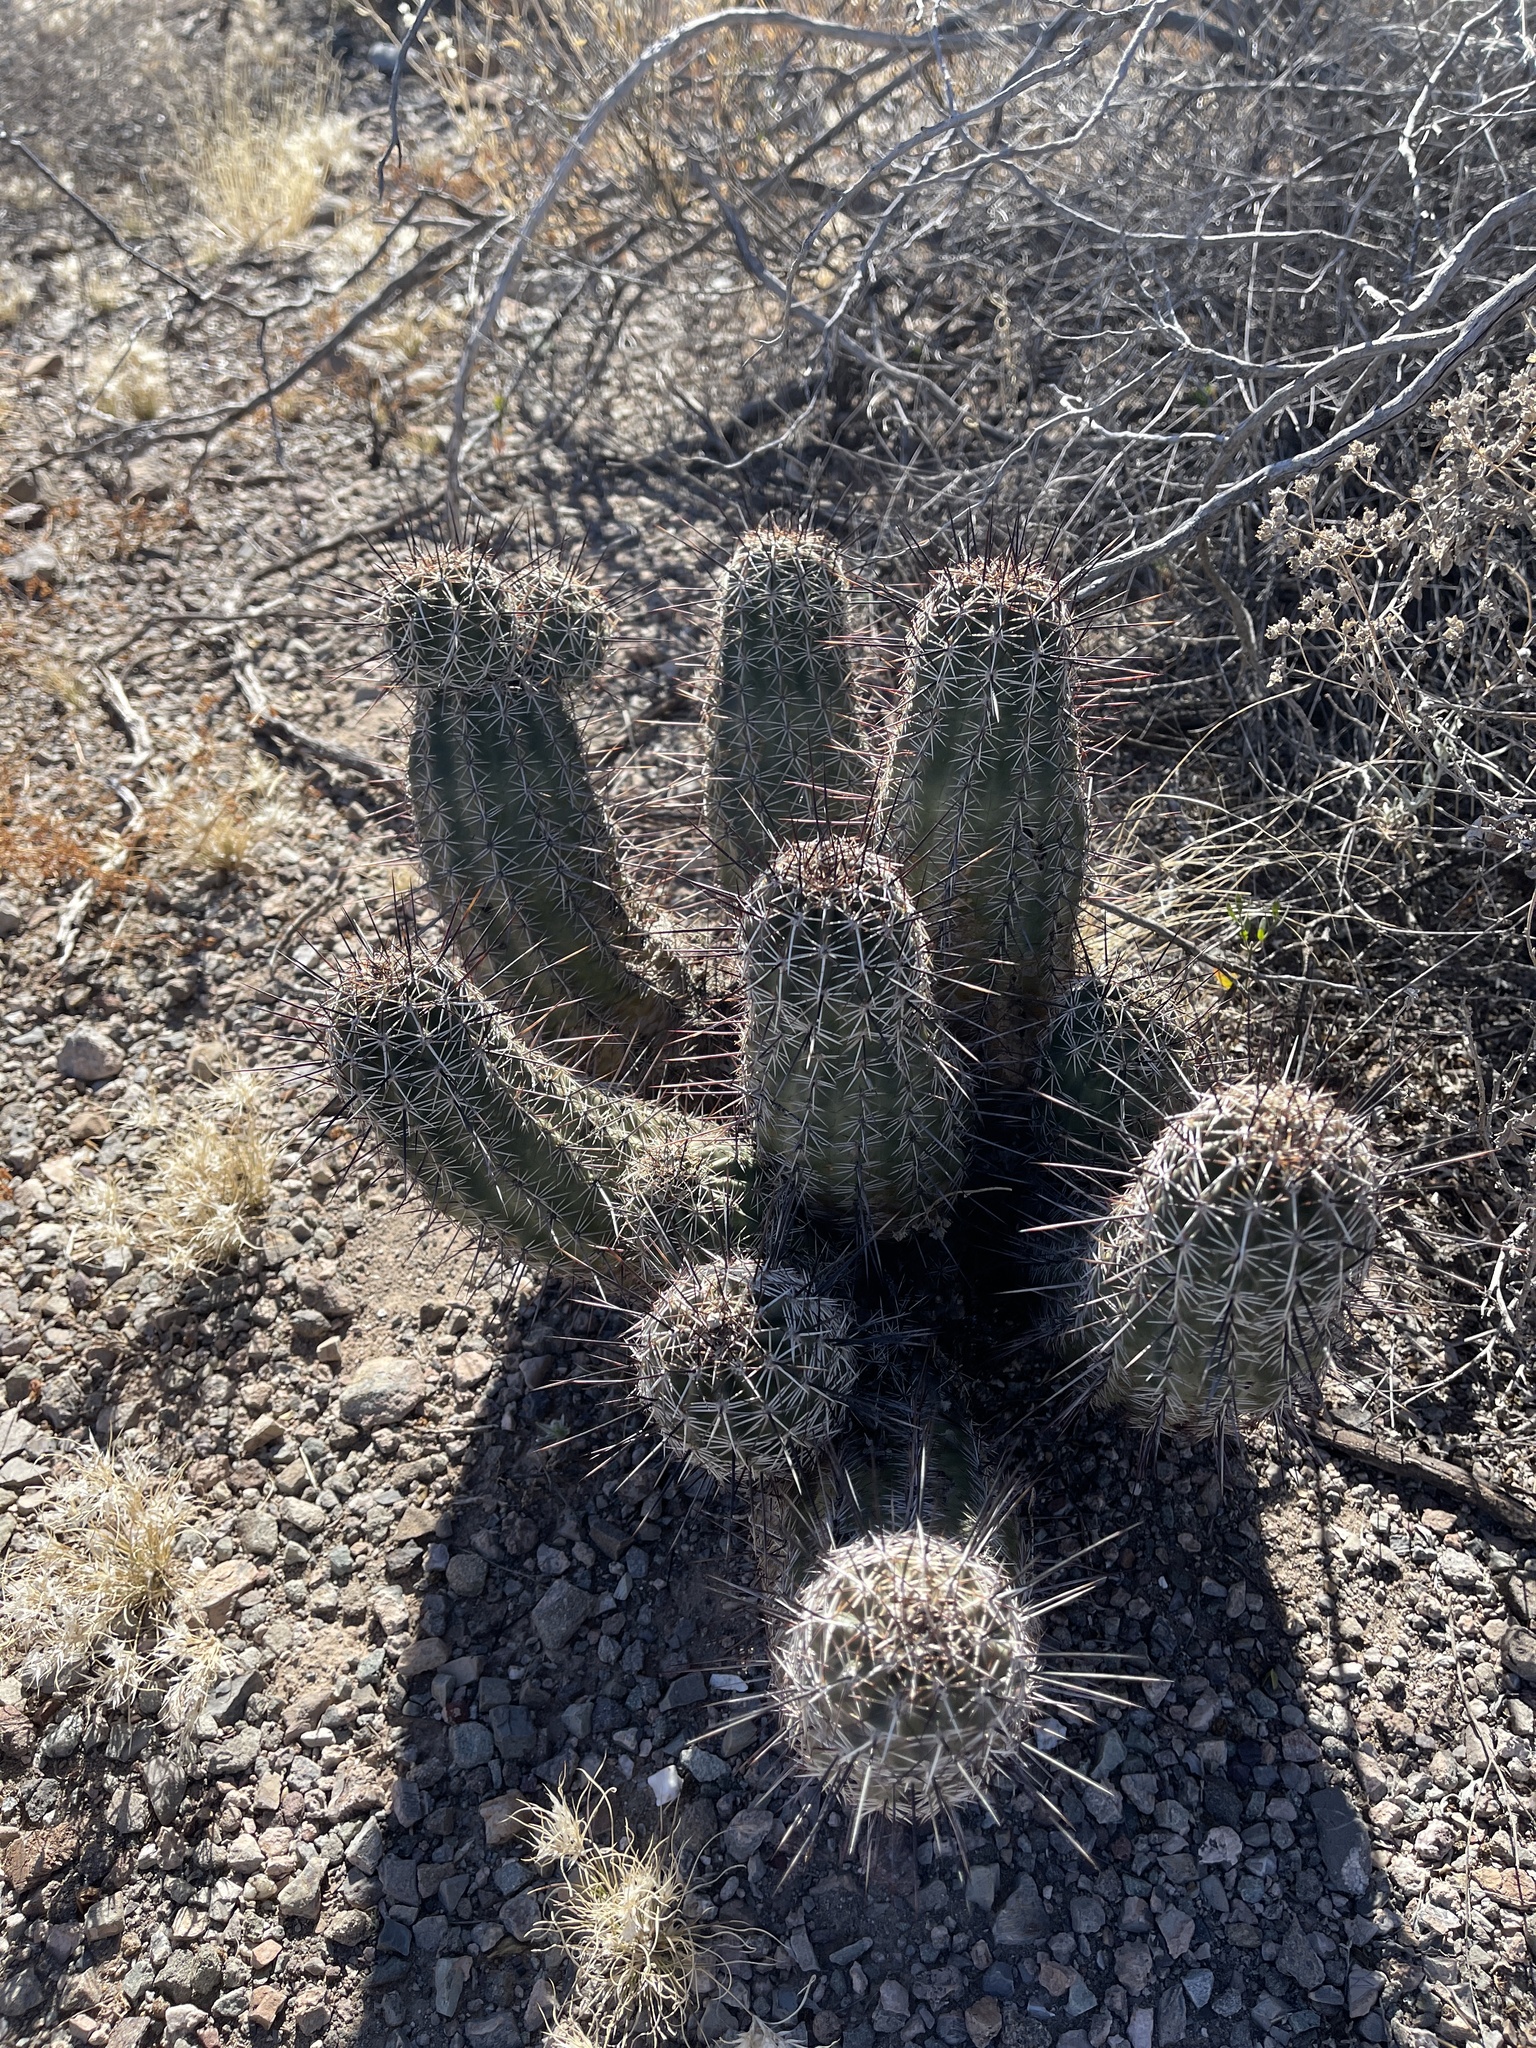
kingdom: Plantae
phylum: Tracheophyta
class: Magnoliopsida
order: Caryophyllales
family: Cactaceae
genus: Echinocereus
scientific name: Echinocereus fasciculatus
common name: Bundle hedgehog
